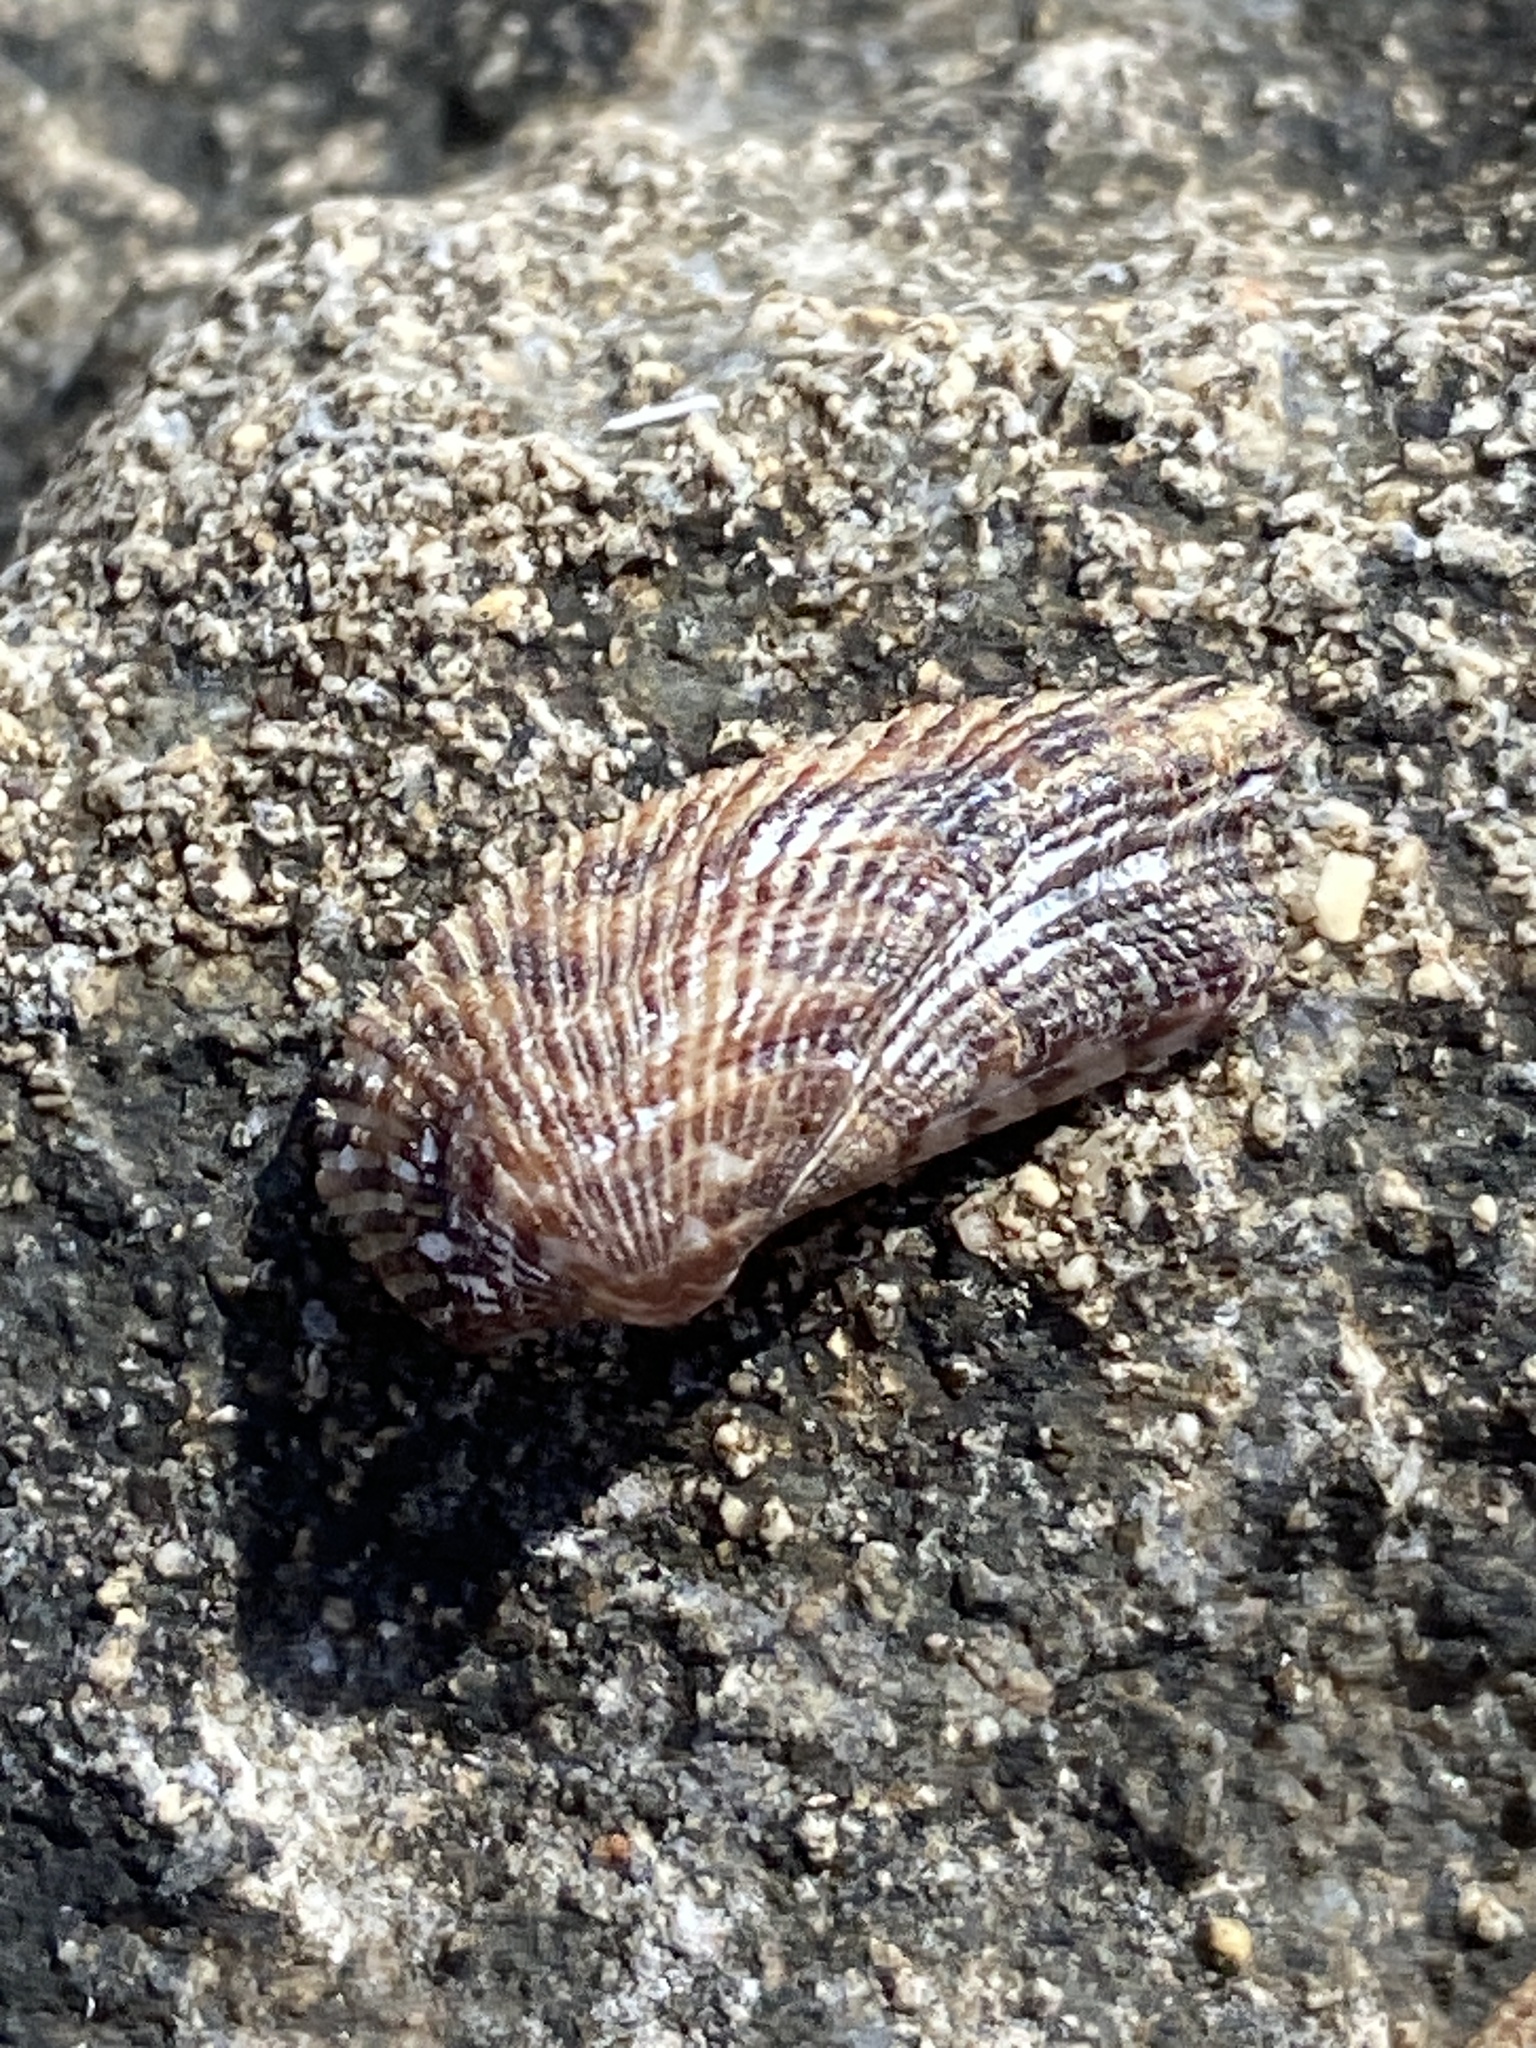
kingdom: Animalia
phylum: Mollusca
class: Bivalvia
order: Arcida
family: Arcidae
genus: Arca
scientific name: Arca noae
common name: Noah's arch
